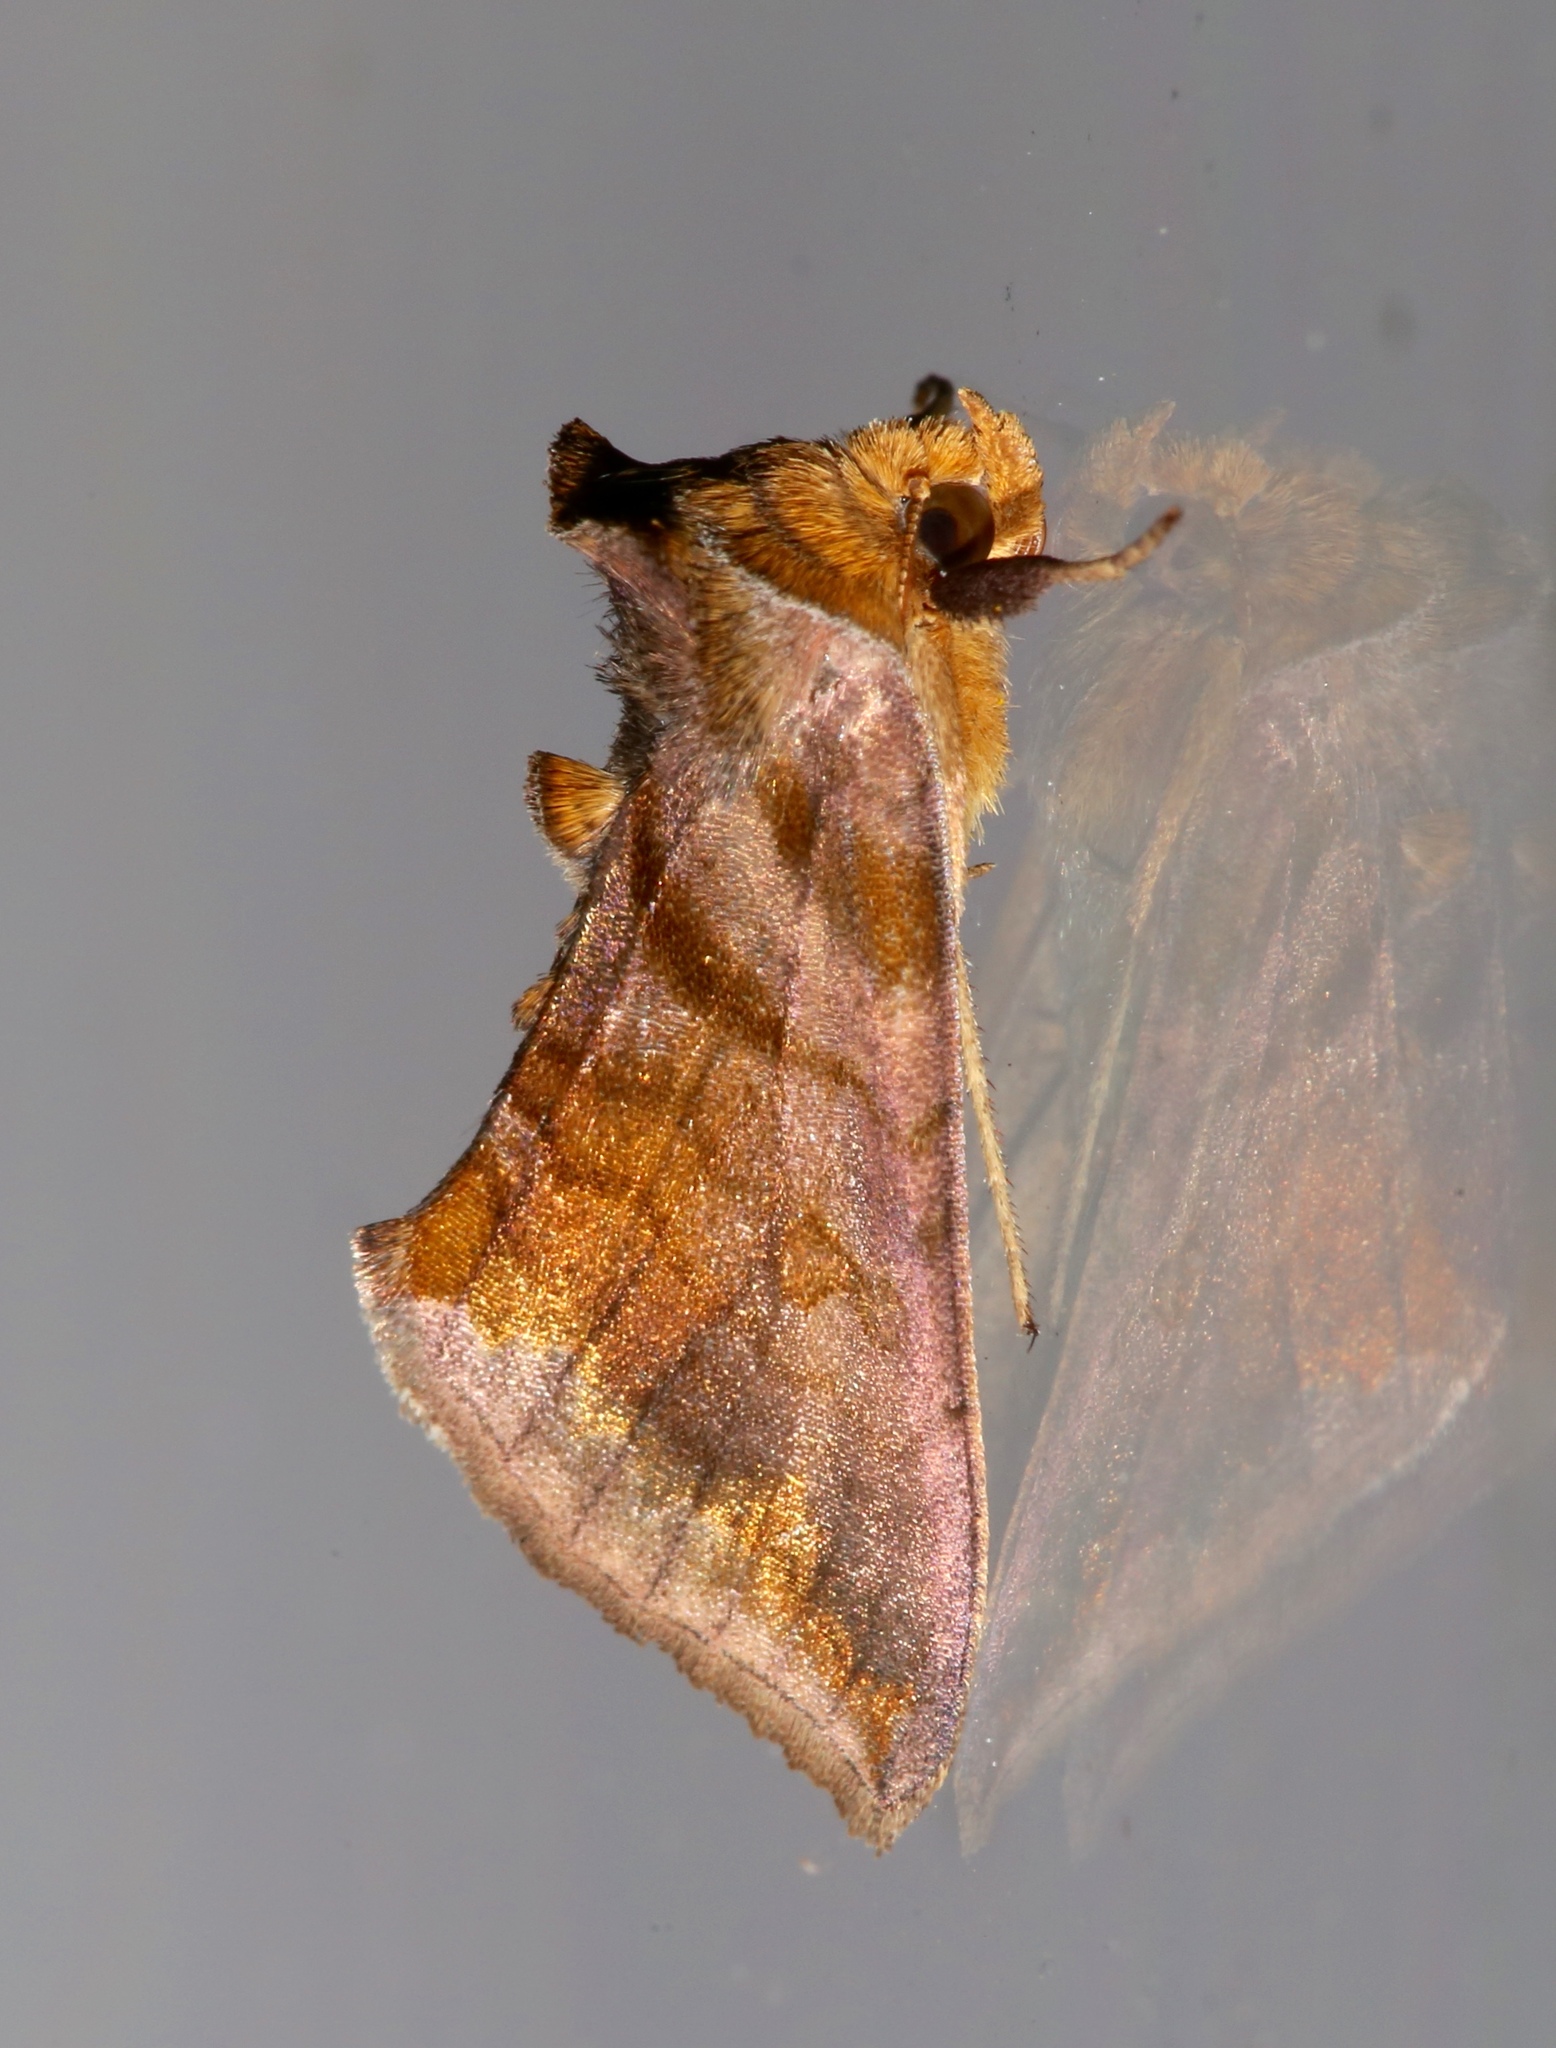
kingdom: Animalia
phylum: Arthropoda
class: Insecta
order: Lepidoptera
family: Noctuidae
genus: Allagrapha
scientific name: Allagrapha aerea
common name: Unspotted looper moth
